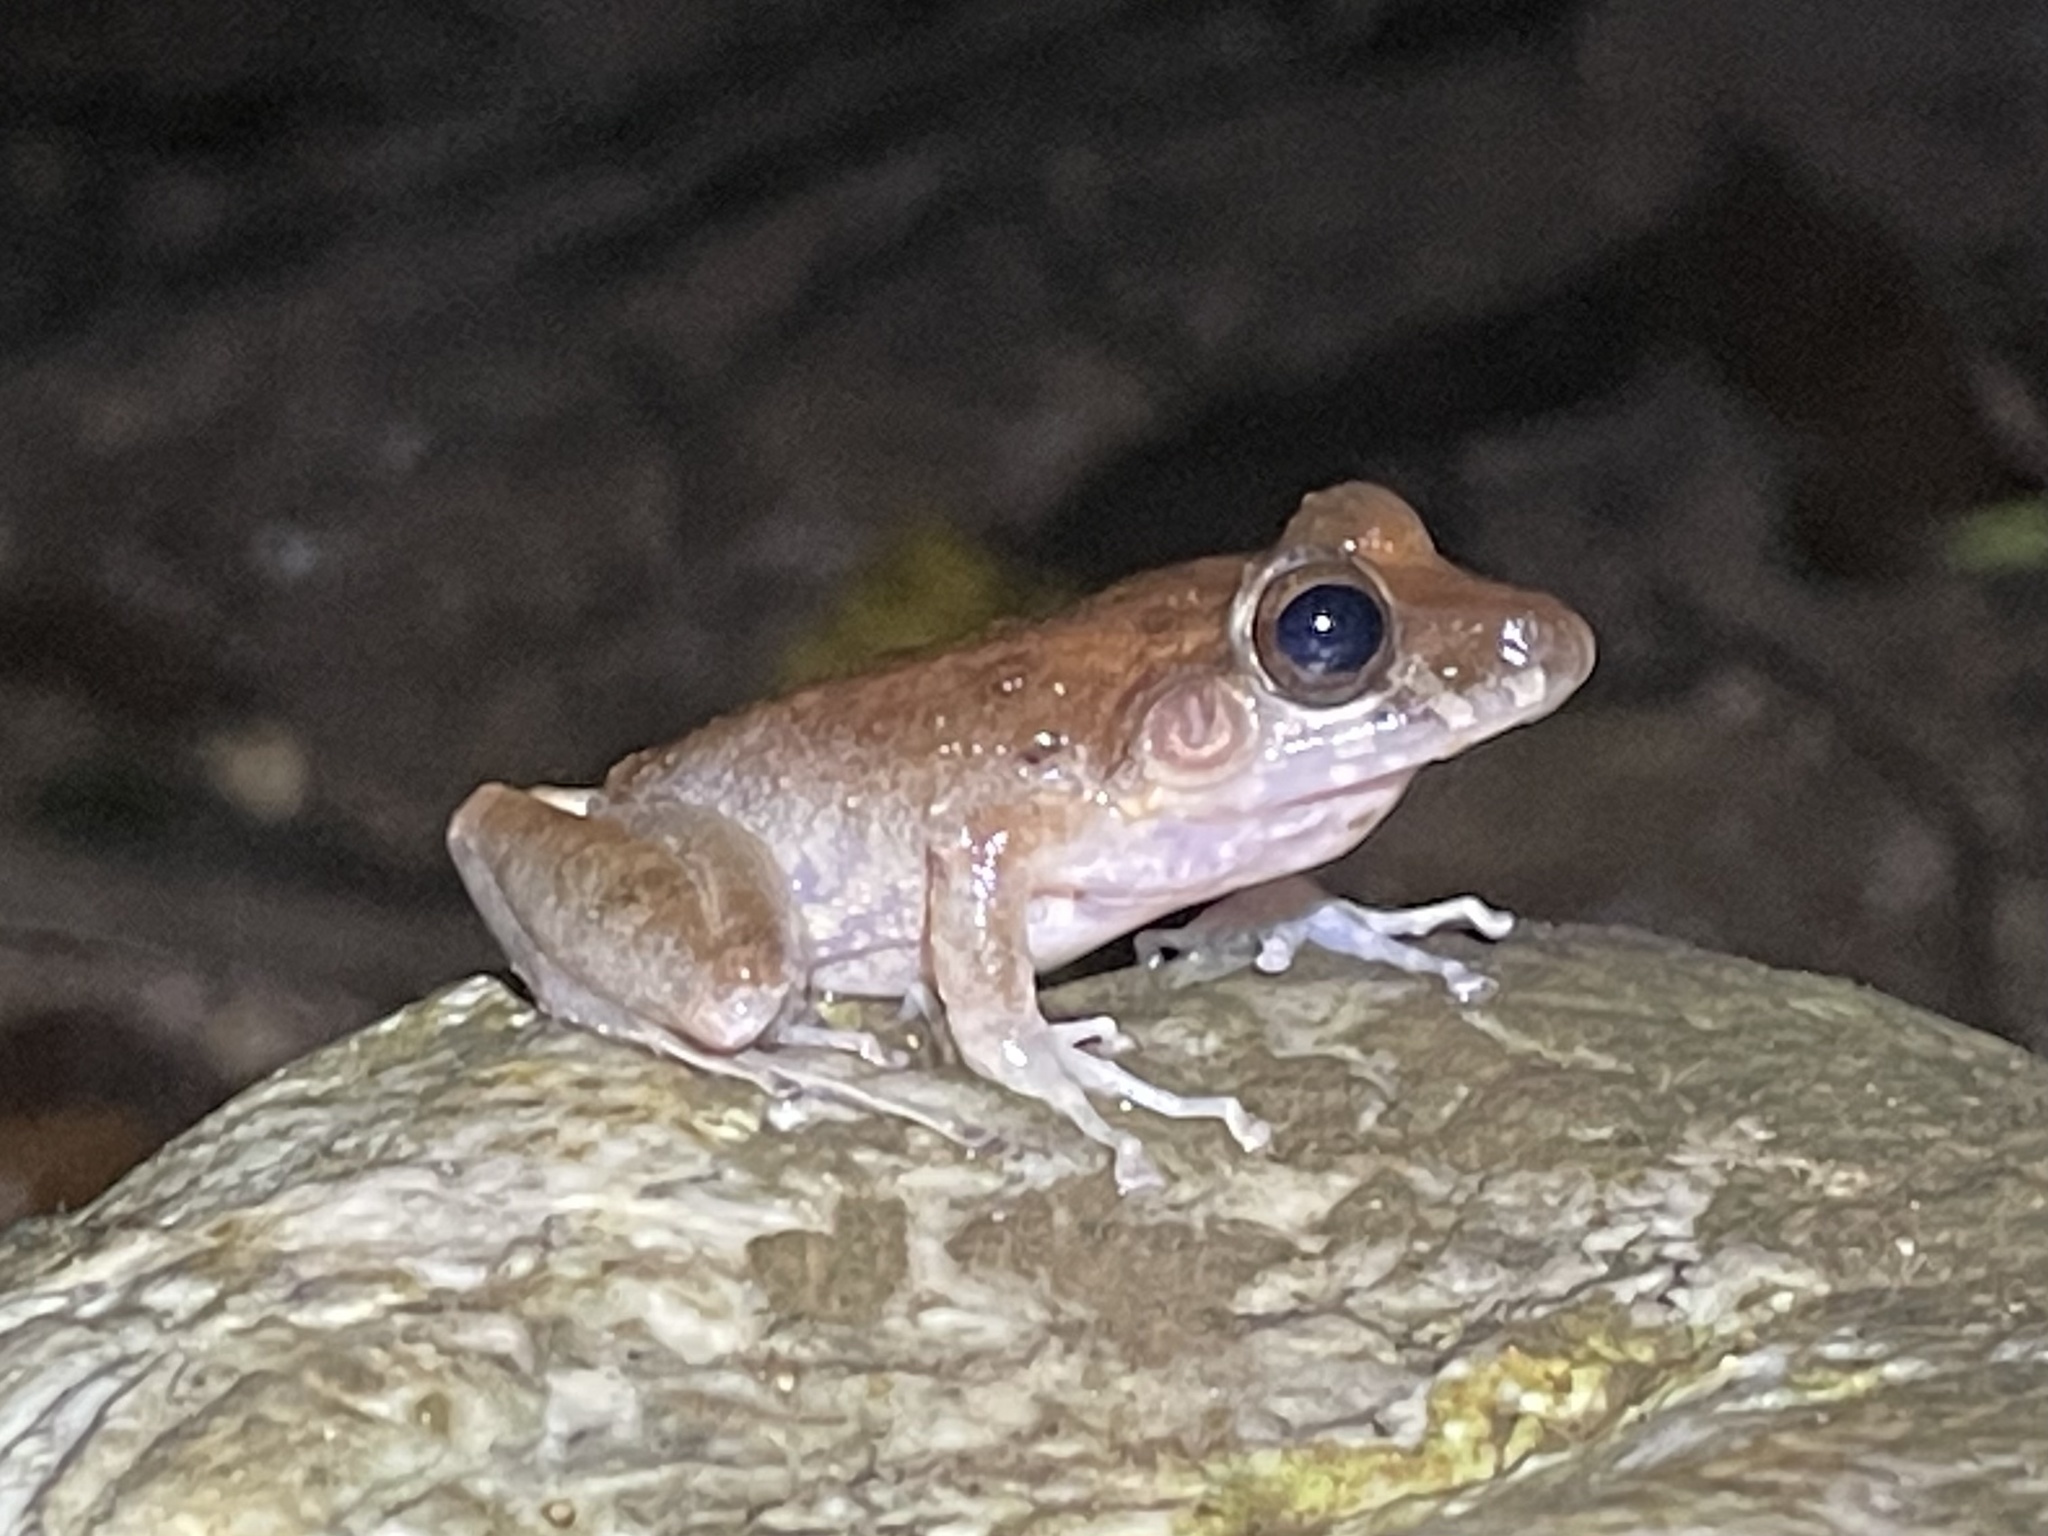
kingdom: Animalia
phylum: Chordata
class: Amphibia
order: Anura
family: Craugastoridae
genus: Craugastor
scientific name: Craugastor crassidigitus
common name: Isla bonita robber frog
